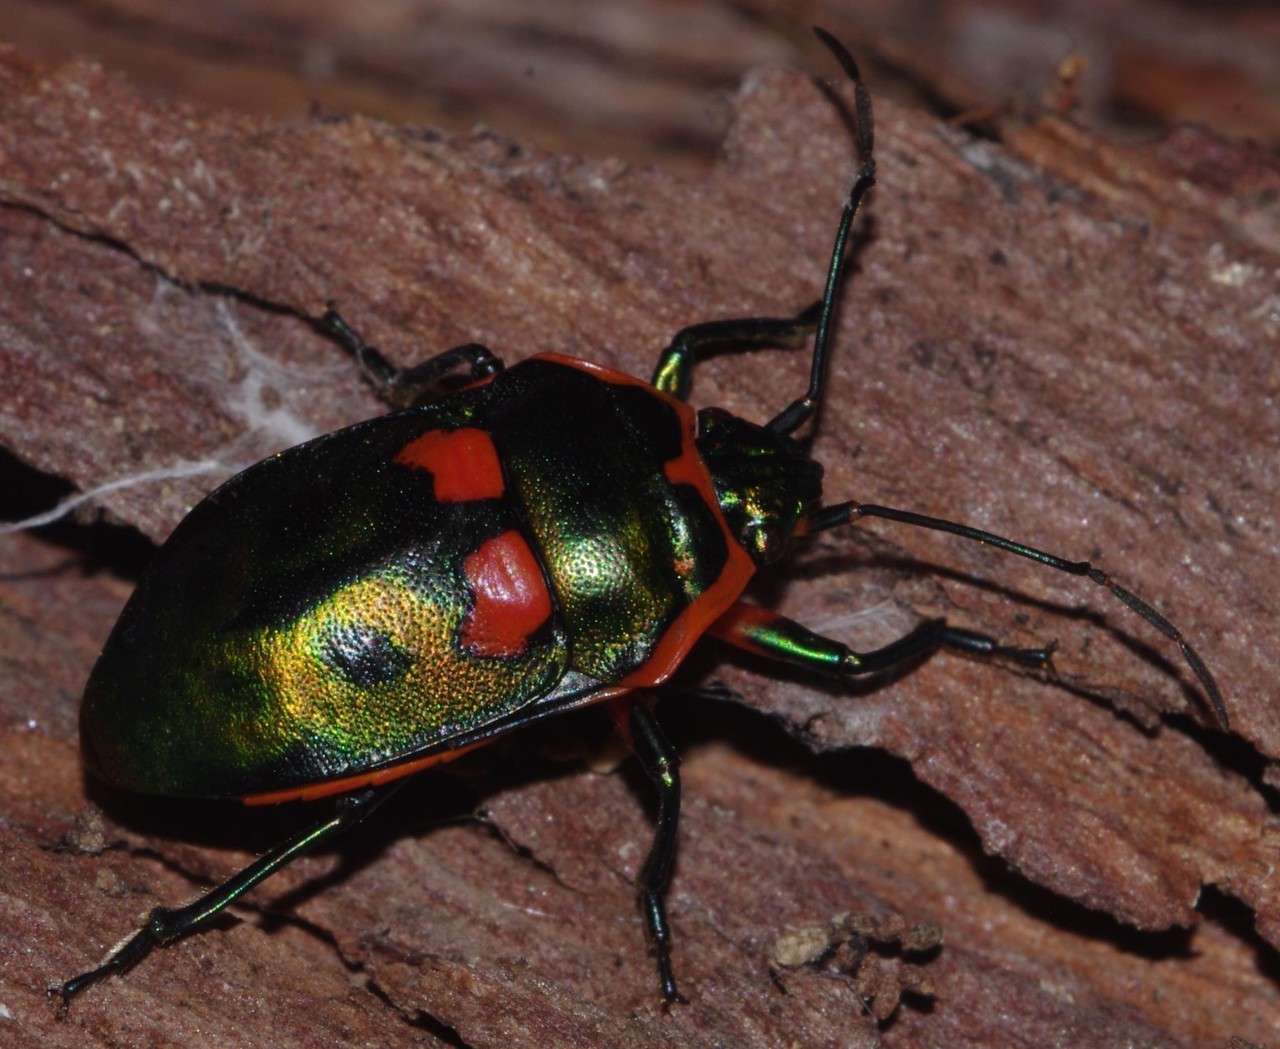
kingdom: Animalia
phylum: Arthropoda
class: Insecta
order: Hemiptera
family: Scutelleridae
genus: Scutiphora
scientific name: Scutiphora pedicellata
